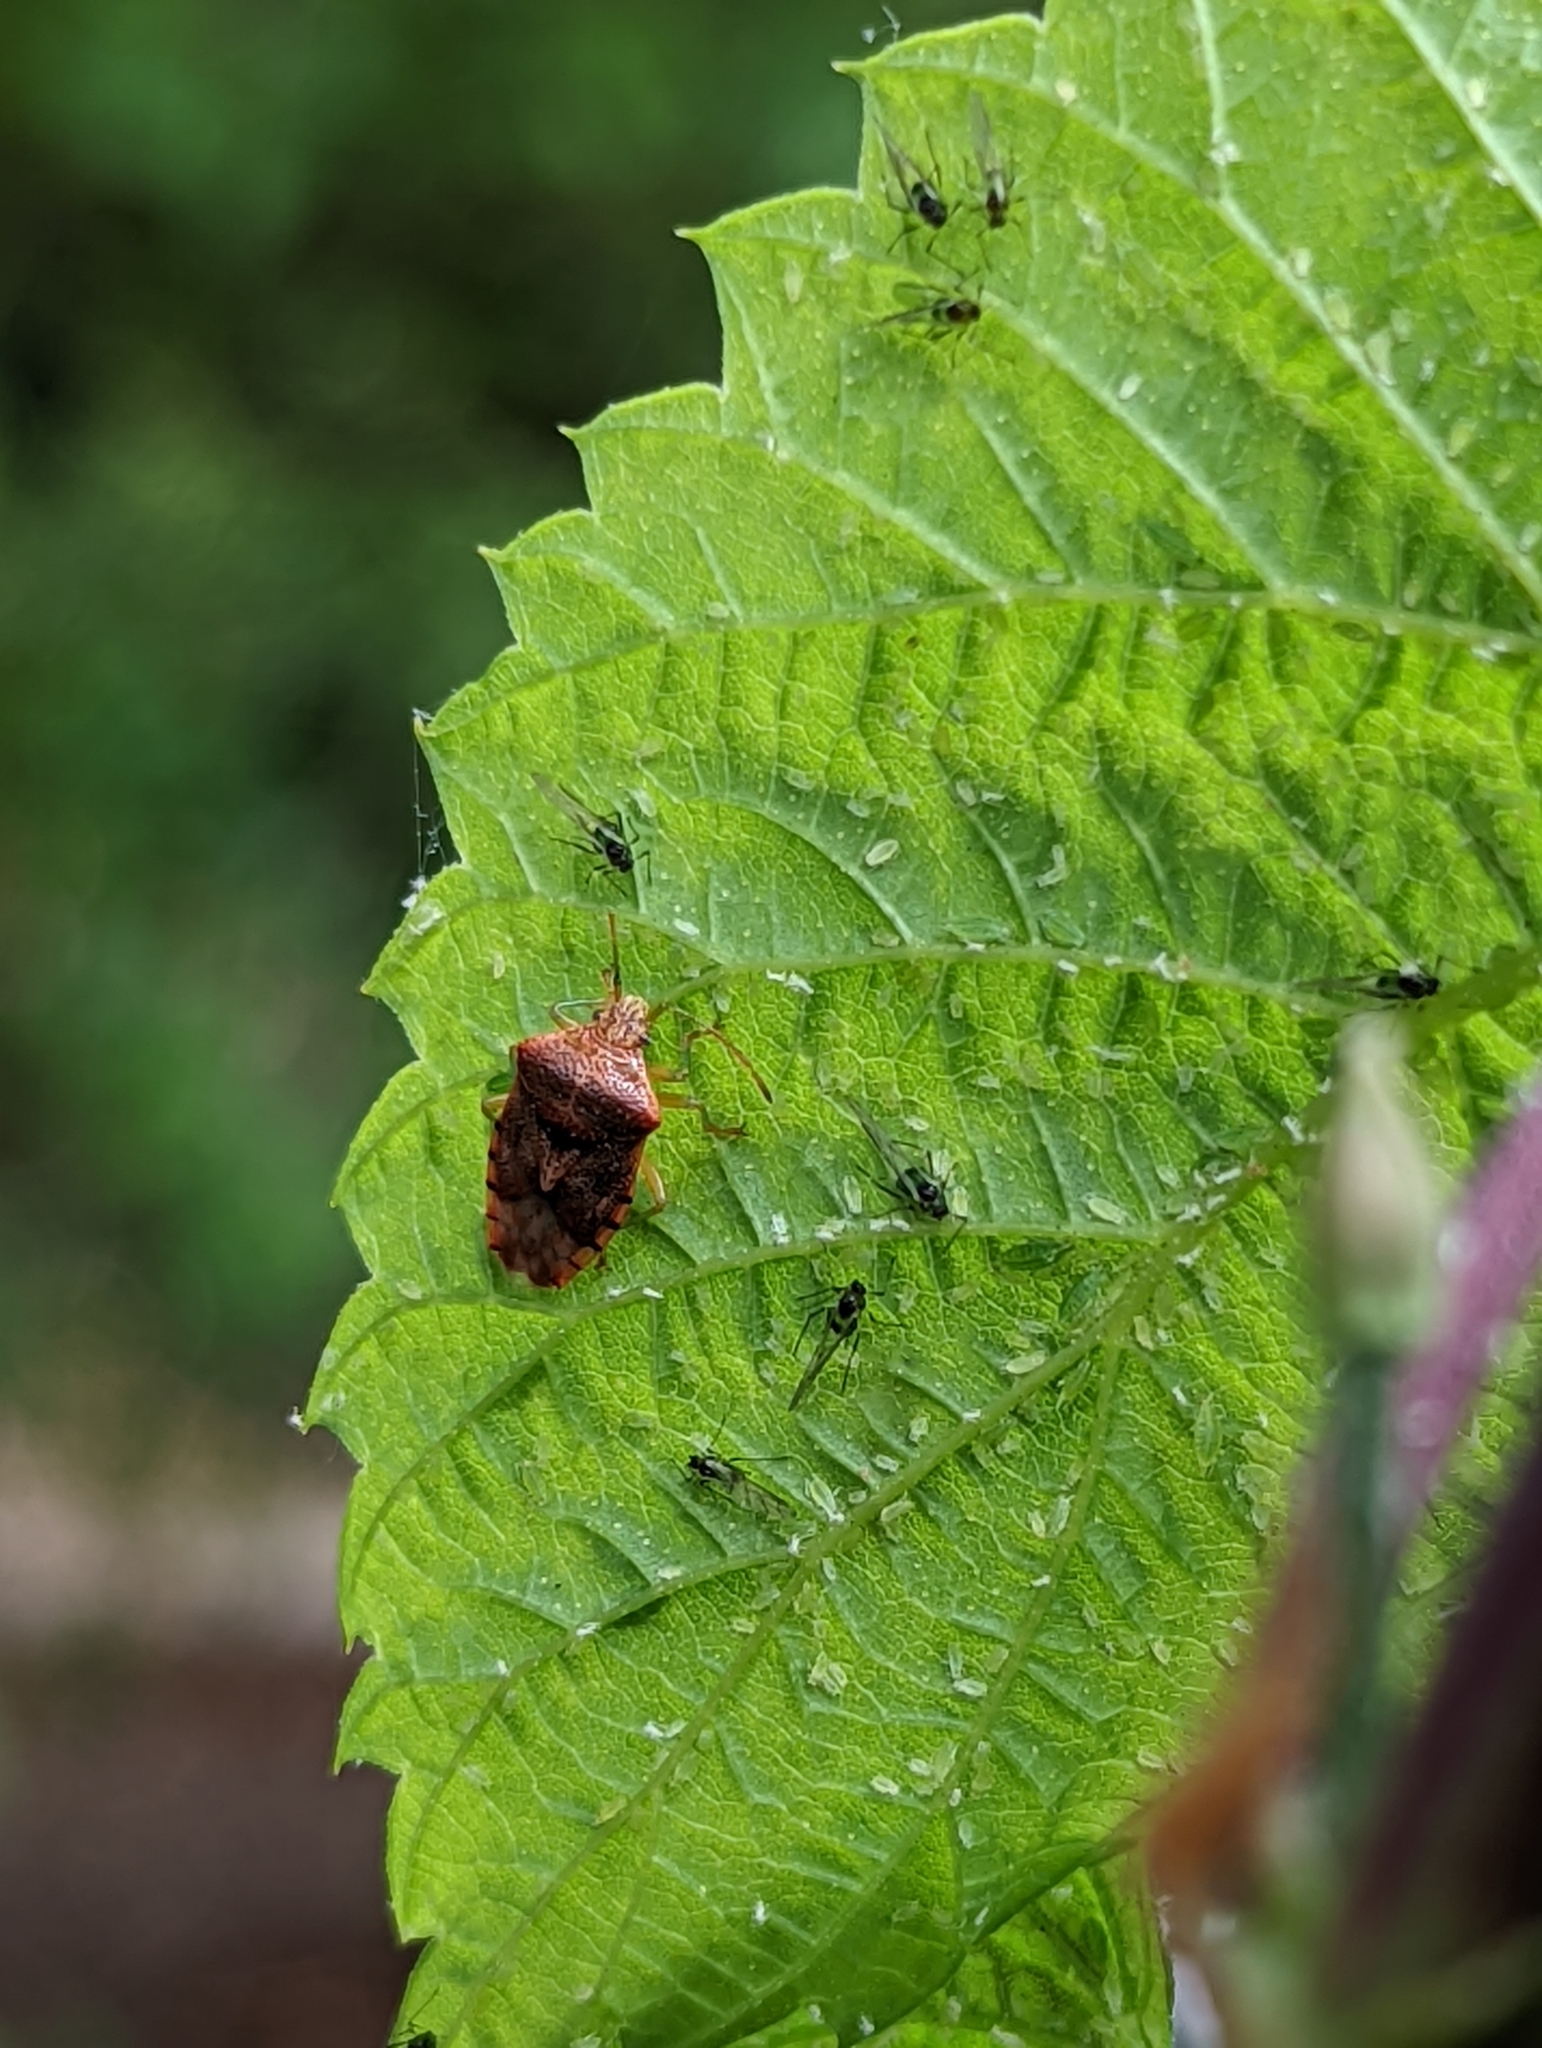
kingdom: Animalia
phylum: Arthropoda
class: Insecta
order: Hemiptera
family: Acanthosomatidae
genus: Elasmucha
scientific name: Elasmucha grisea
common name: Parent bug
